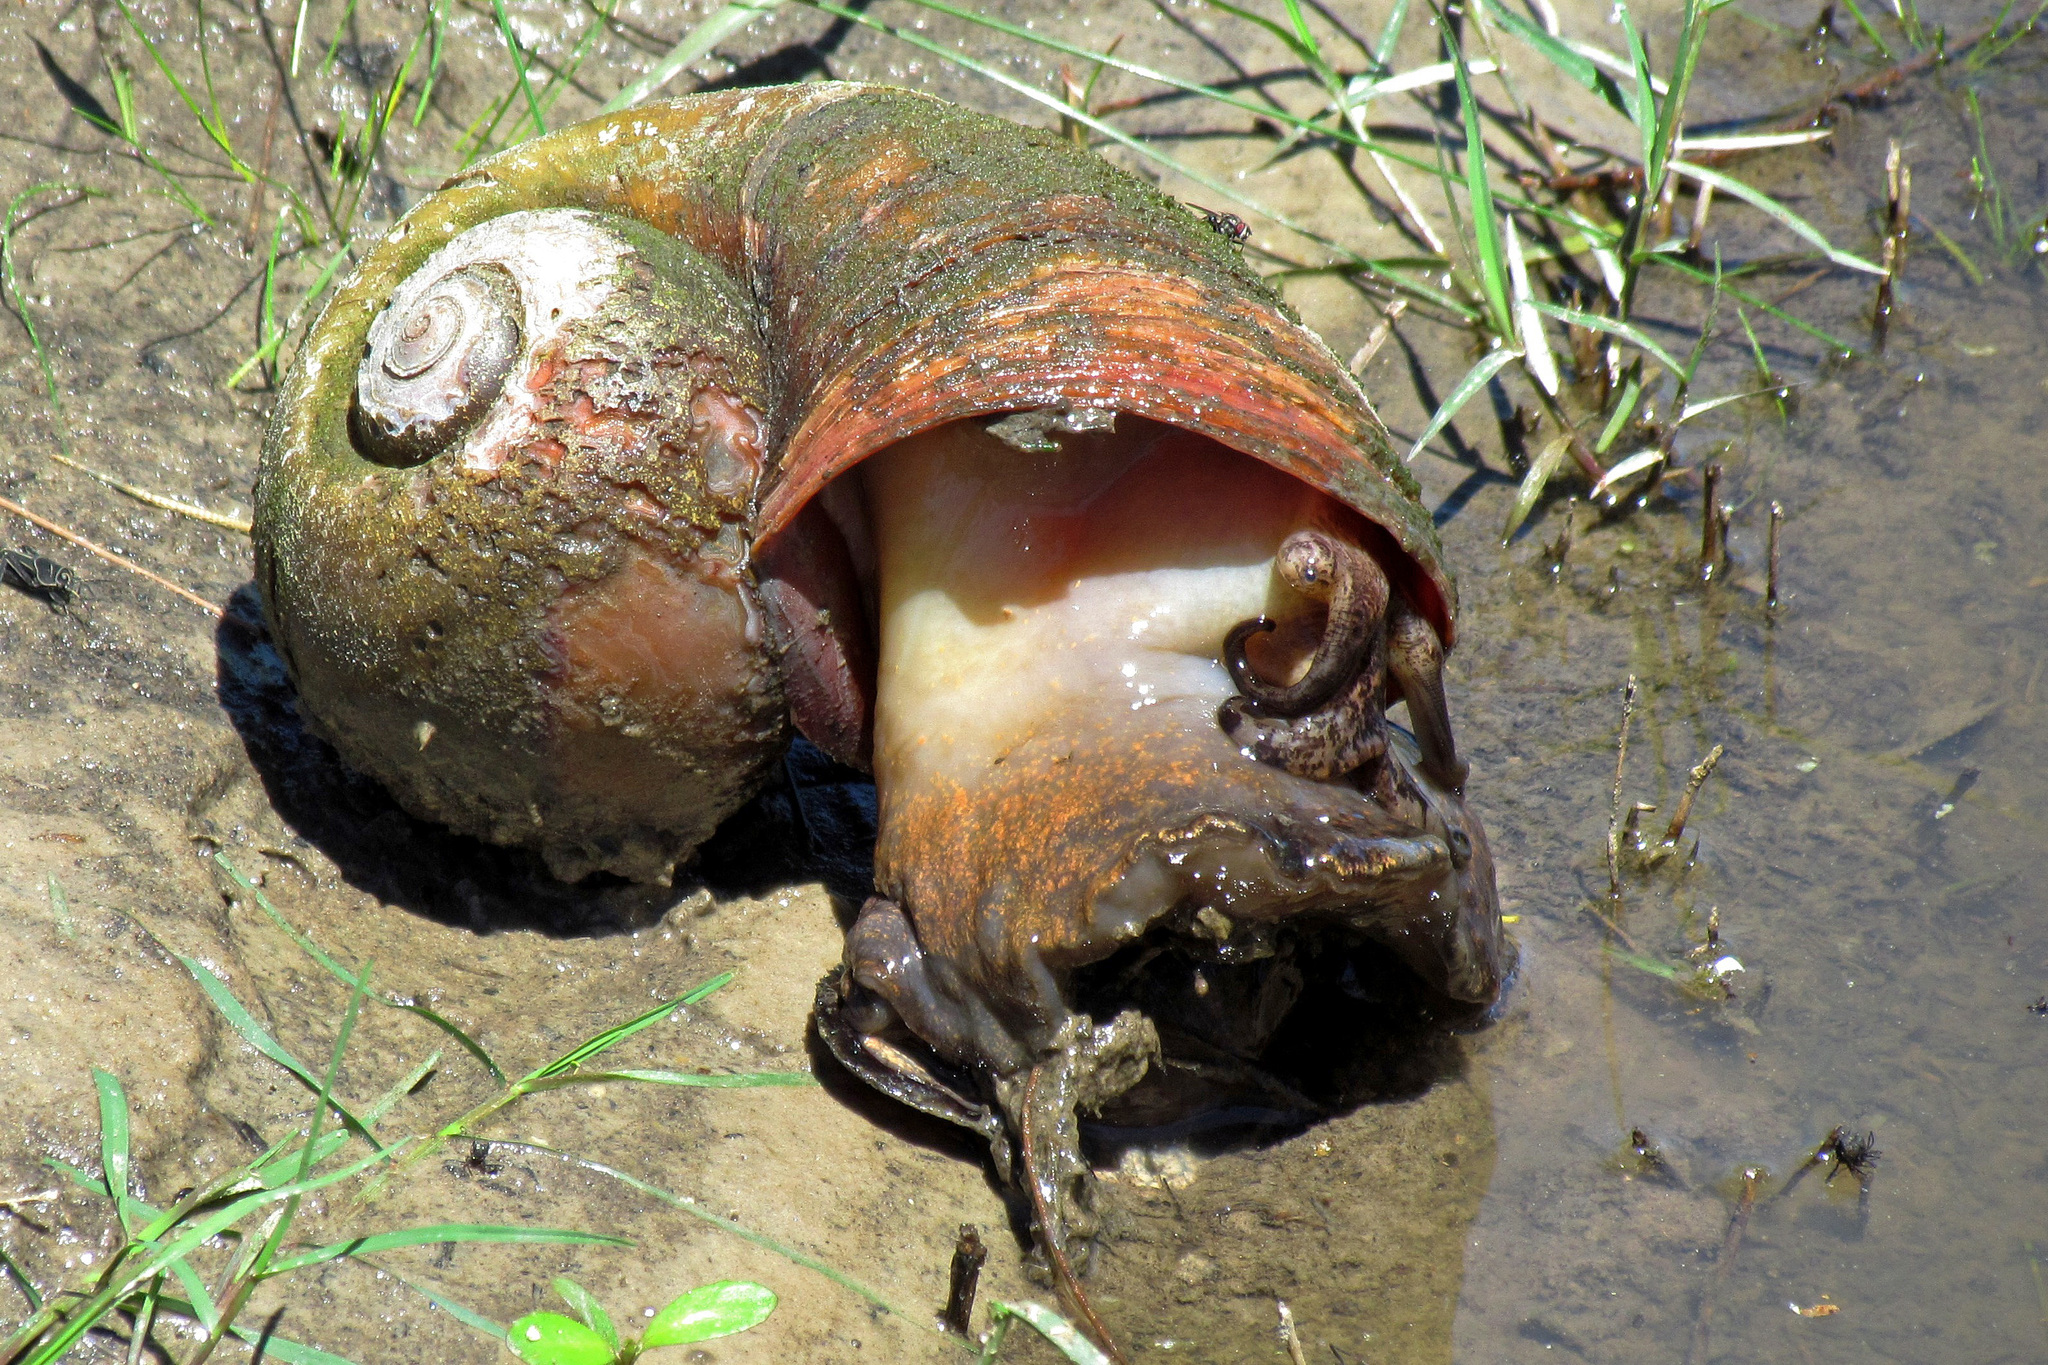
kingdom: Animalia
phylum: Mollusca
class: Gastropoda
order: Architaenioglossa
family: Ampullariidae
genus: Pomacea
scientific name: Pomacea canaliculata
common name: Channeled applesnail
